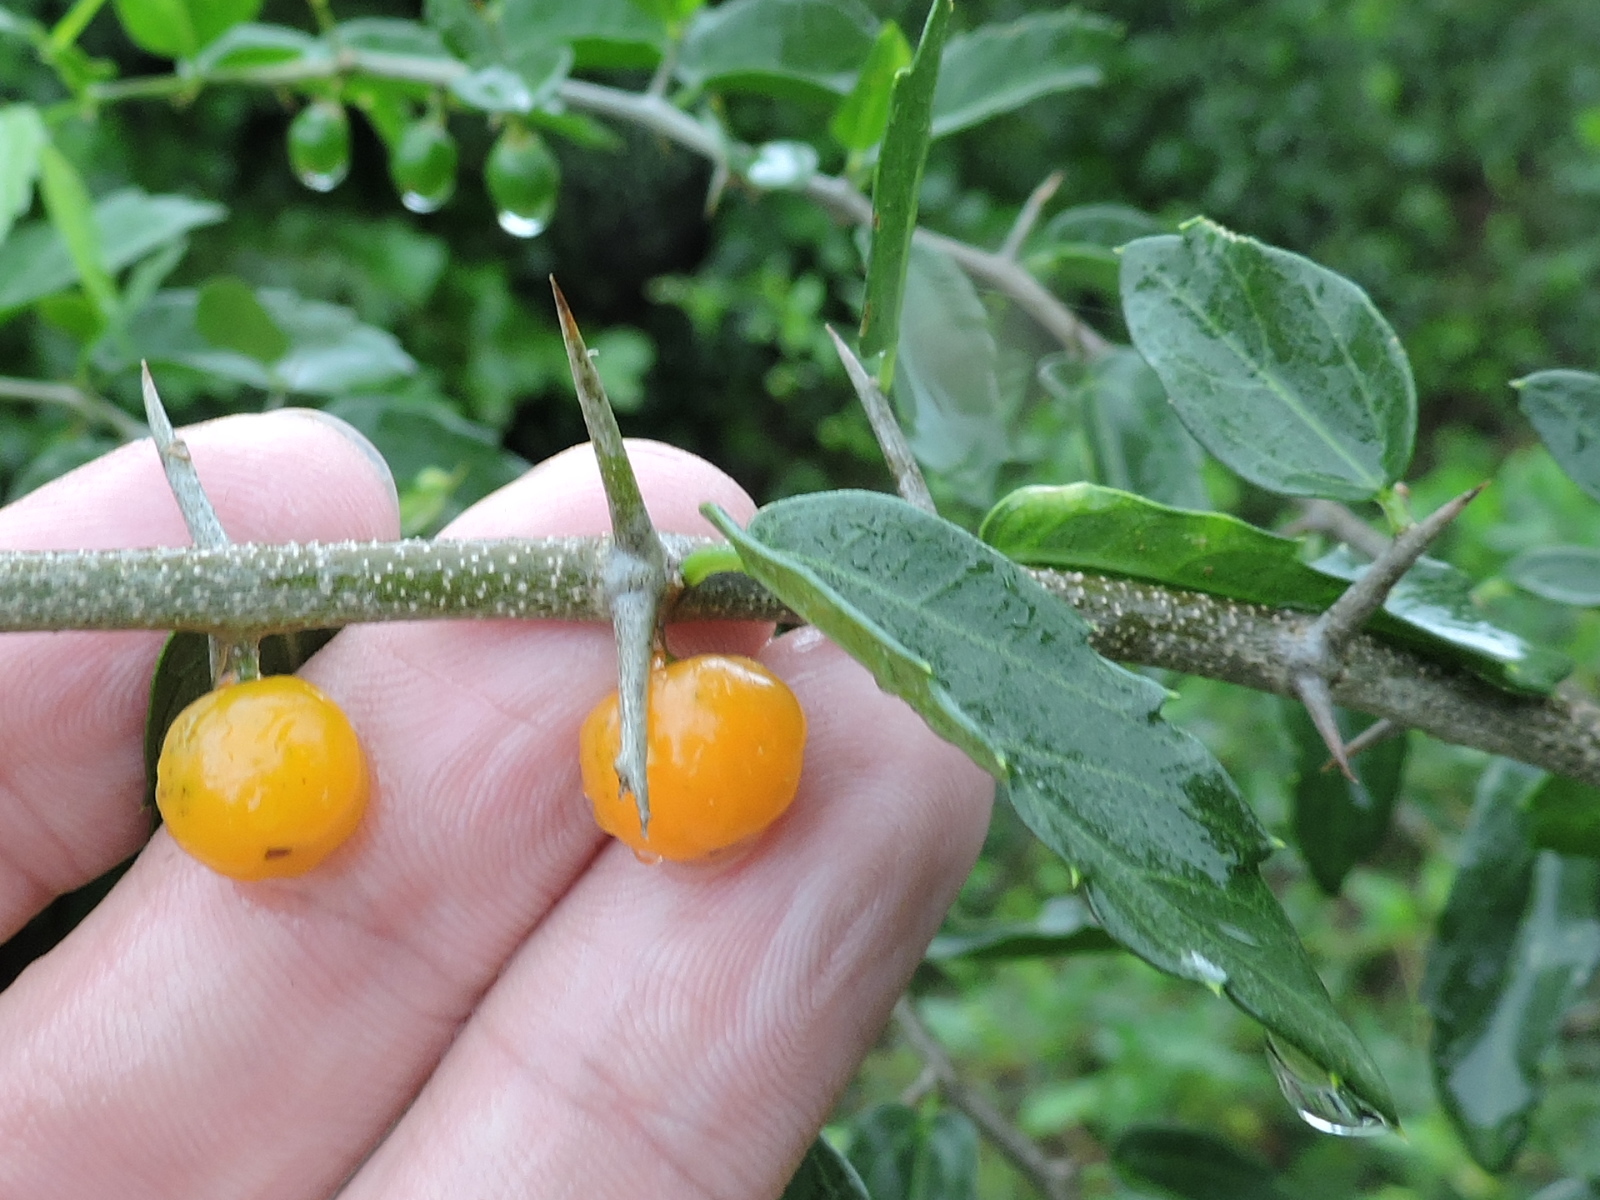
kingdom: Plantae
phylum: Tracheophyta
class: Magnoliopsida
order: Rosales
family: Cannabaceae
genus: Celtis
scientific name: Celtis pallida
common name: Desert hackberry
